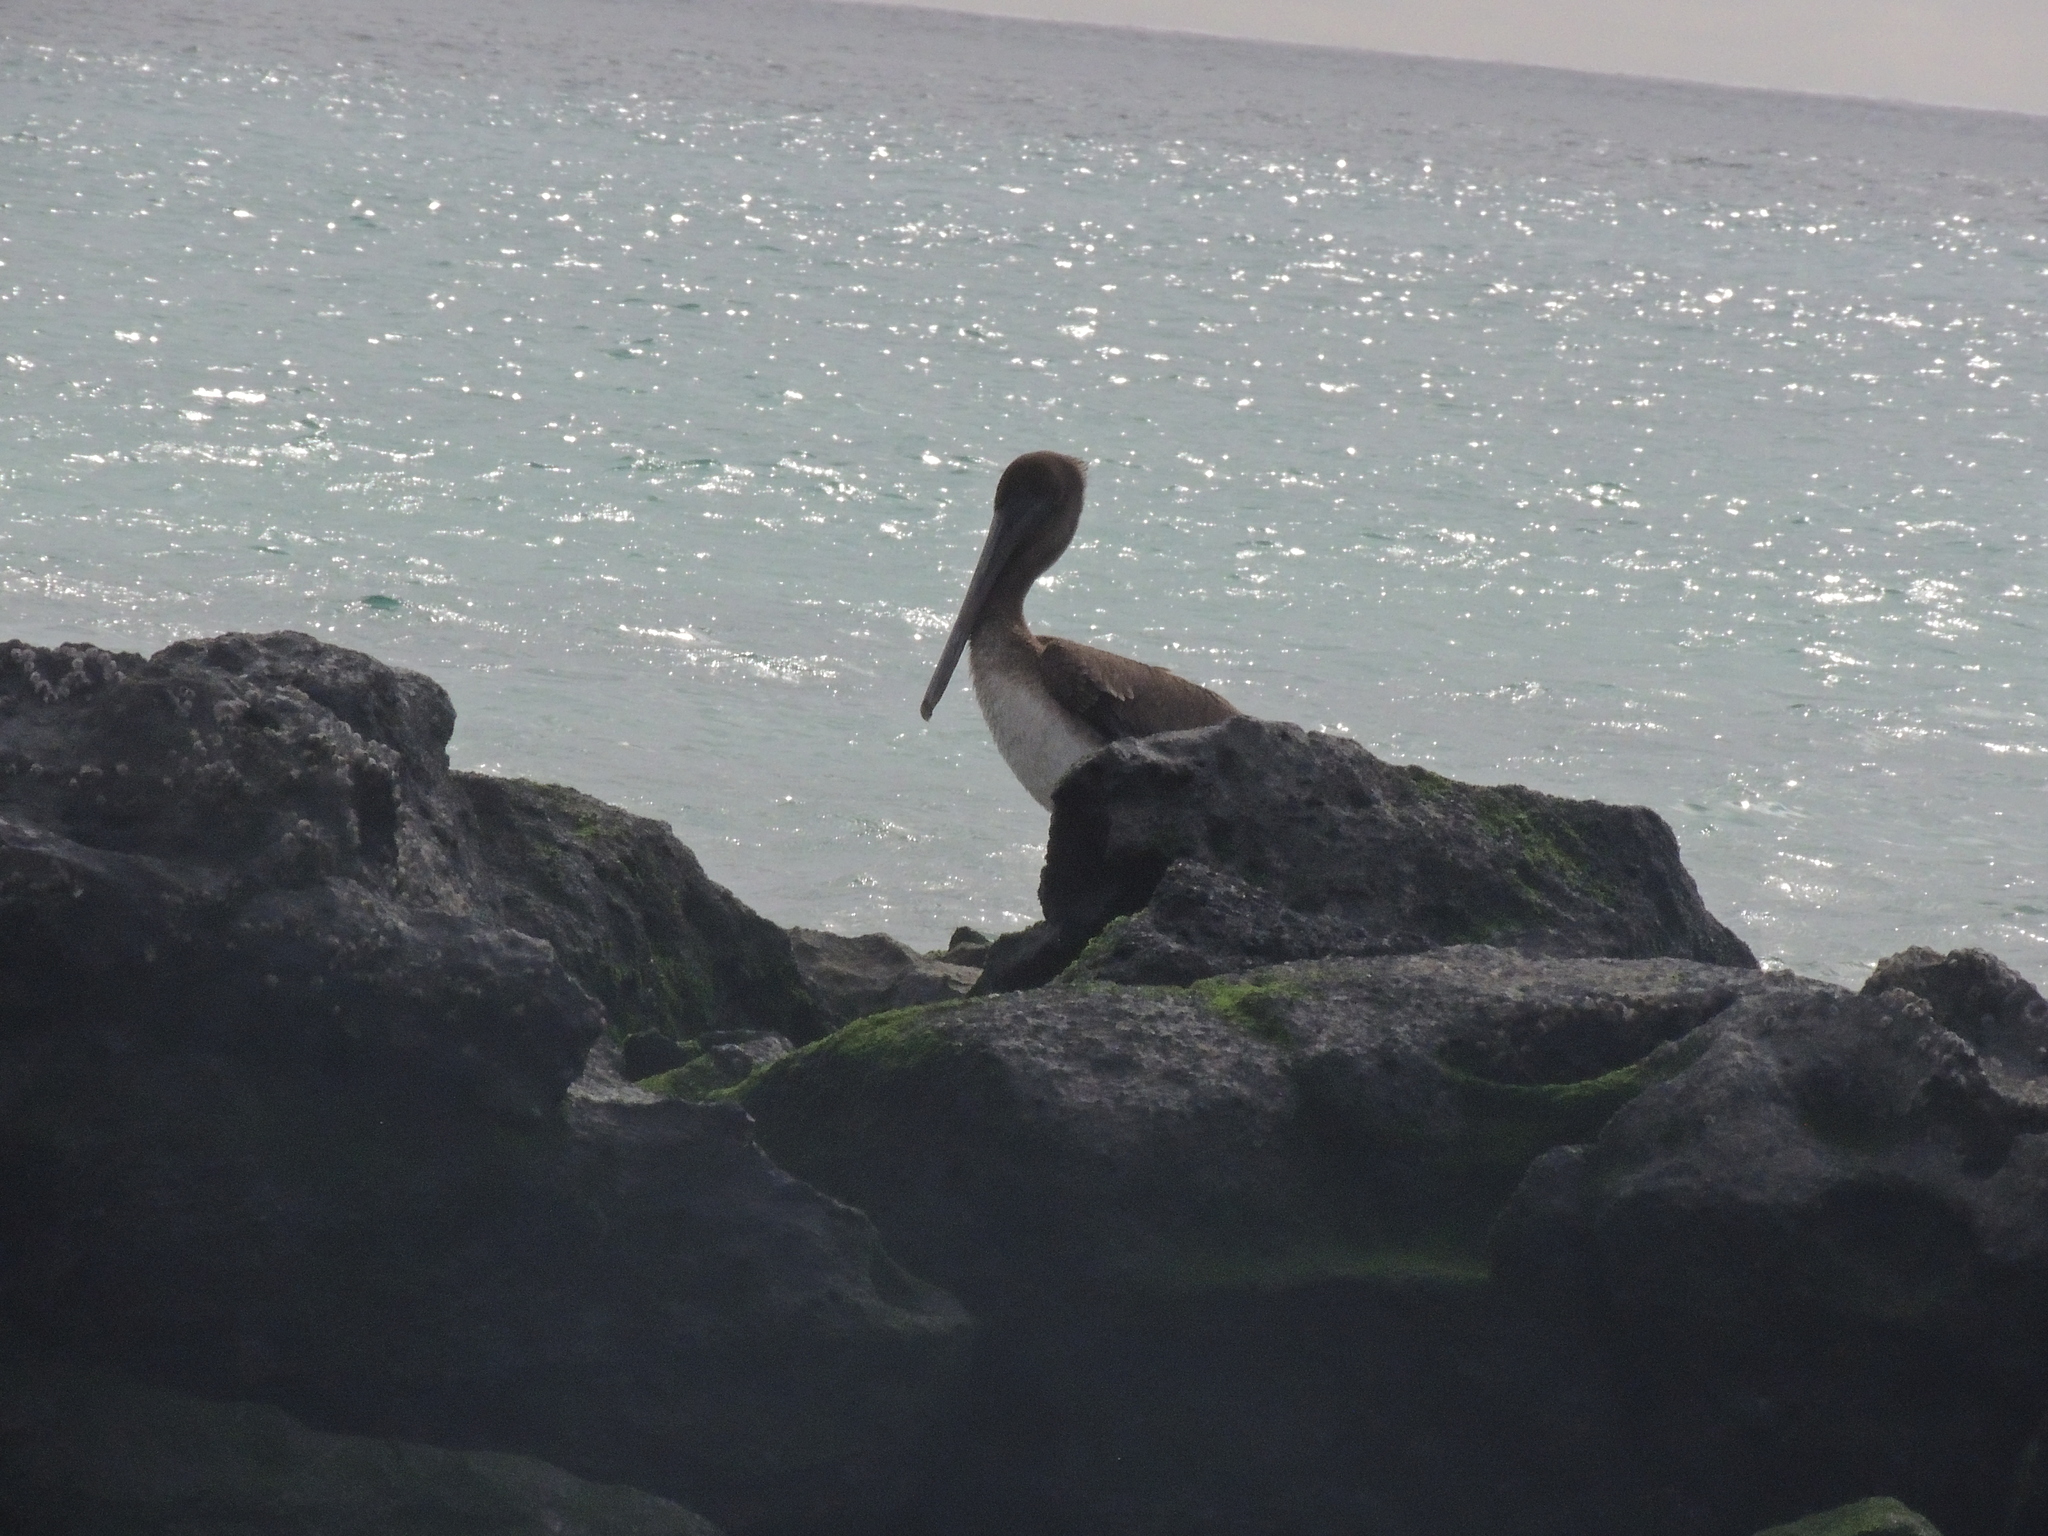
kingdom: Animalia
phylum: Chordata
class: Aves
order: Pelecaniformes
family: Pelecanidae
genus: Pelecanus
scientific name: Pelecanus occidentalis
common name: Brown pelican
